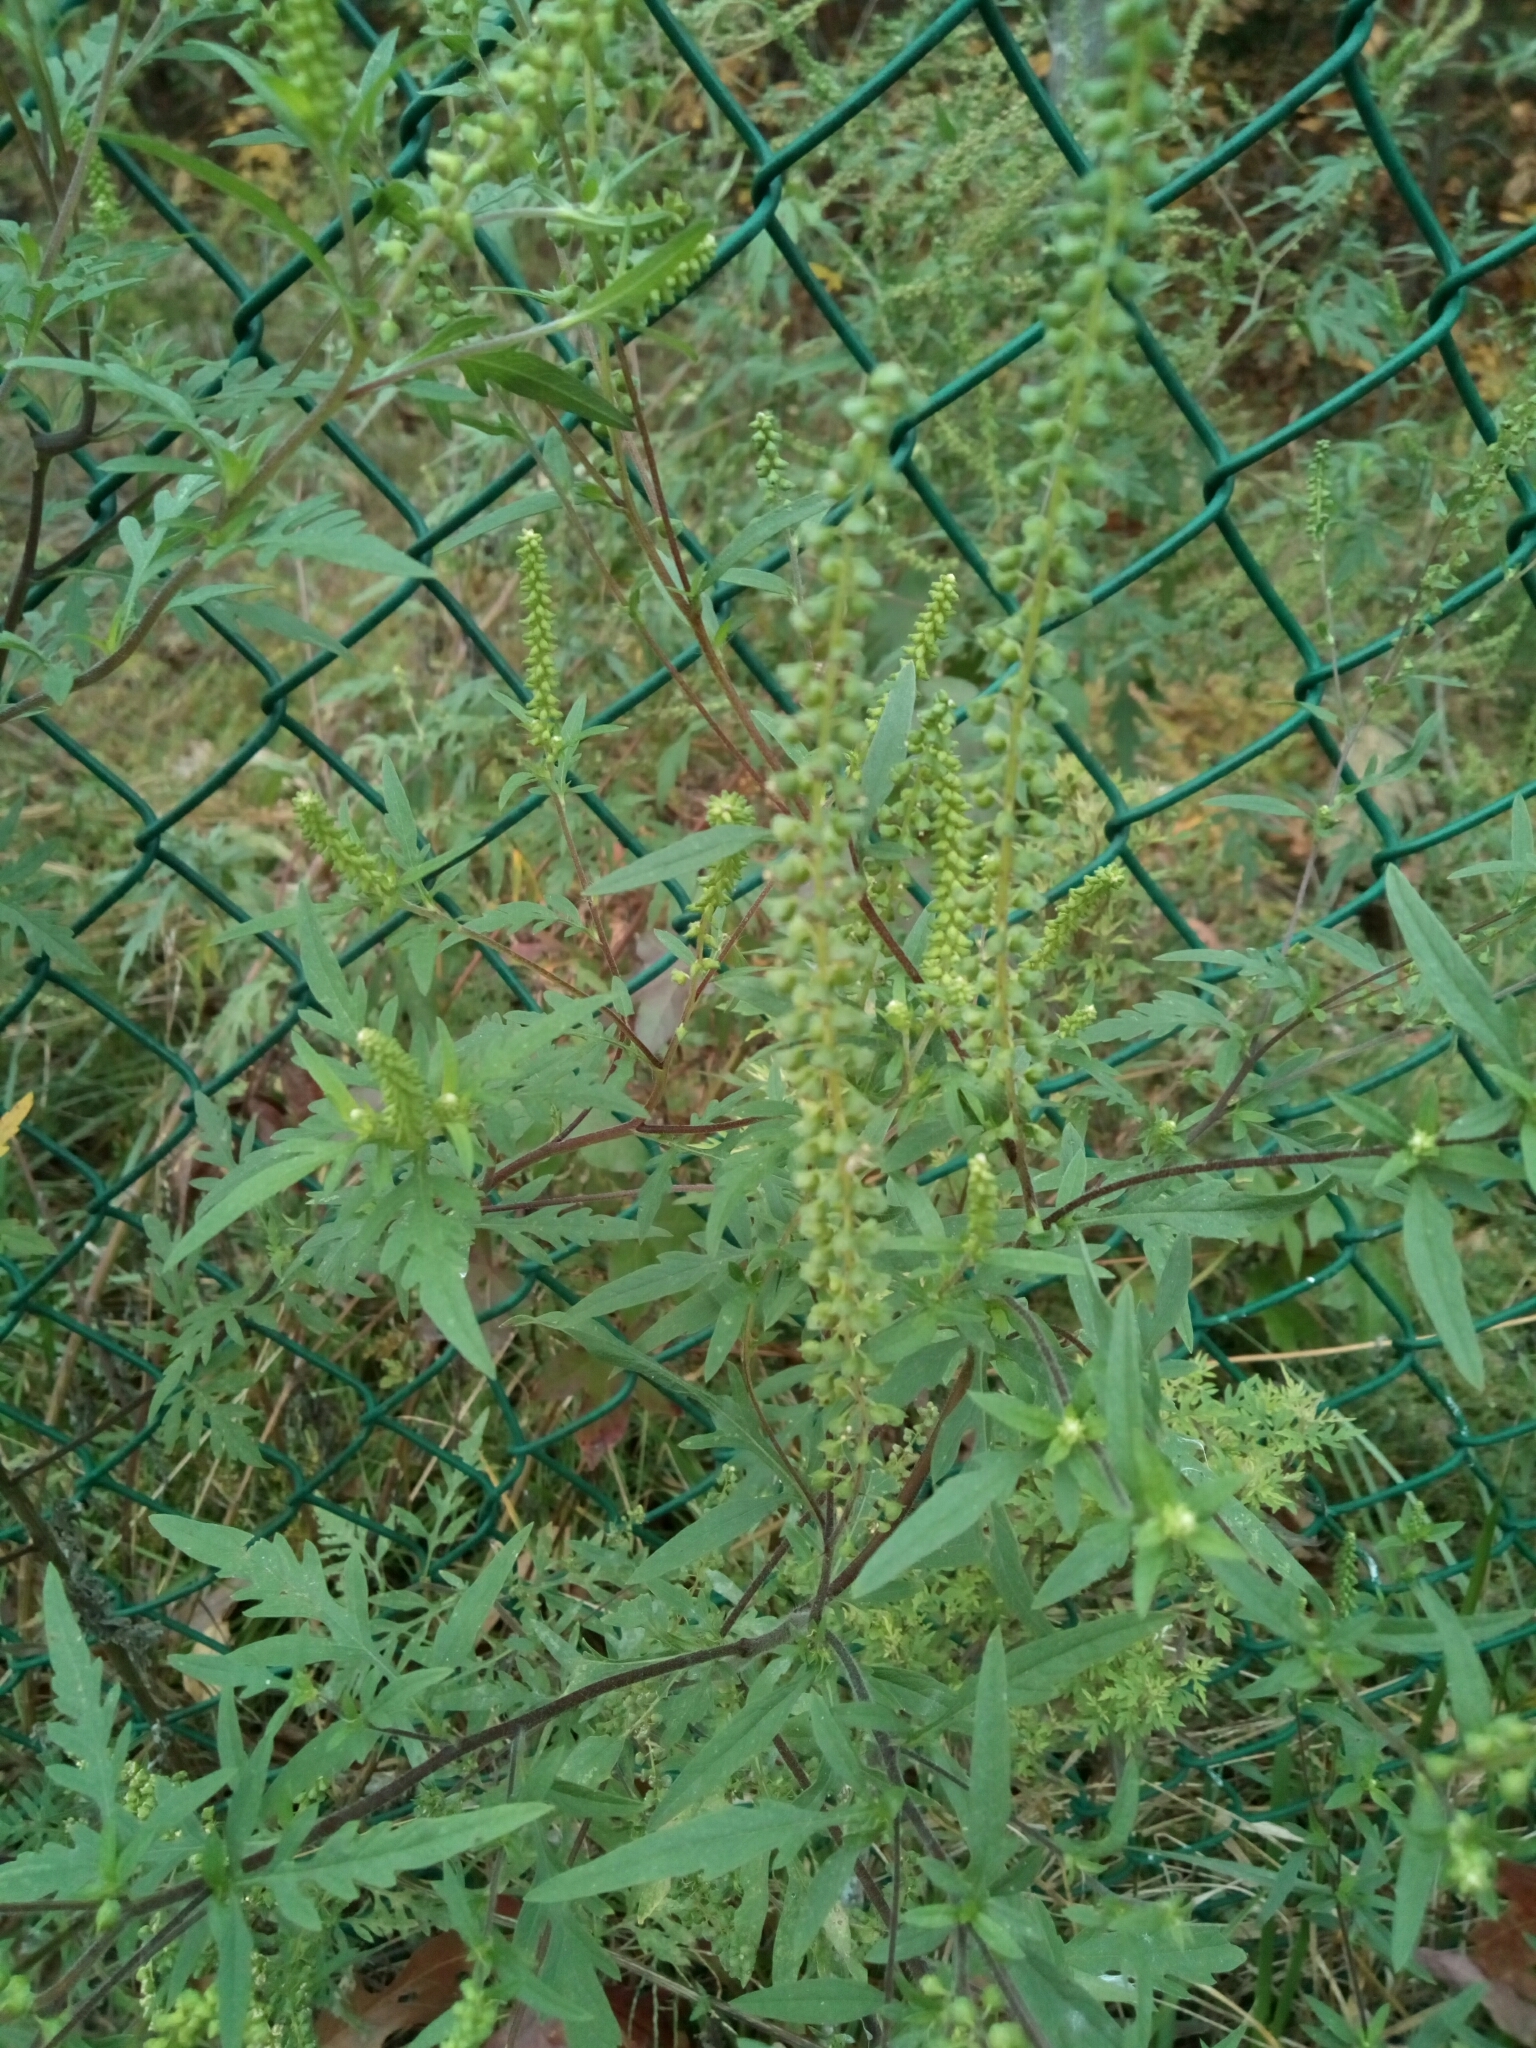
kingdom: Plantae
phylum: Tracheophyta
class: Magnoliopsida
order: Asterales
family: Asteraceae
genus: Ambrosia
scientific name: Ambrosia artemisiifolia
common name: Annual ragweed
